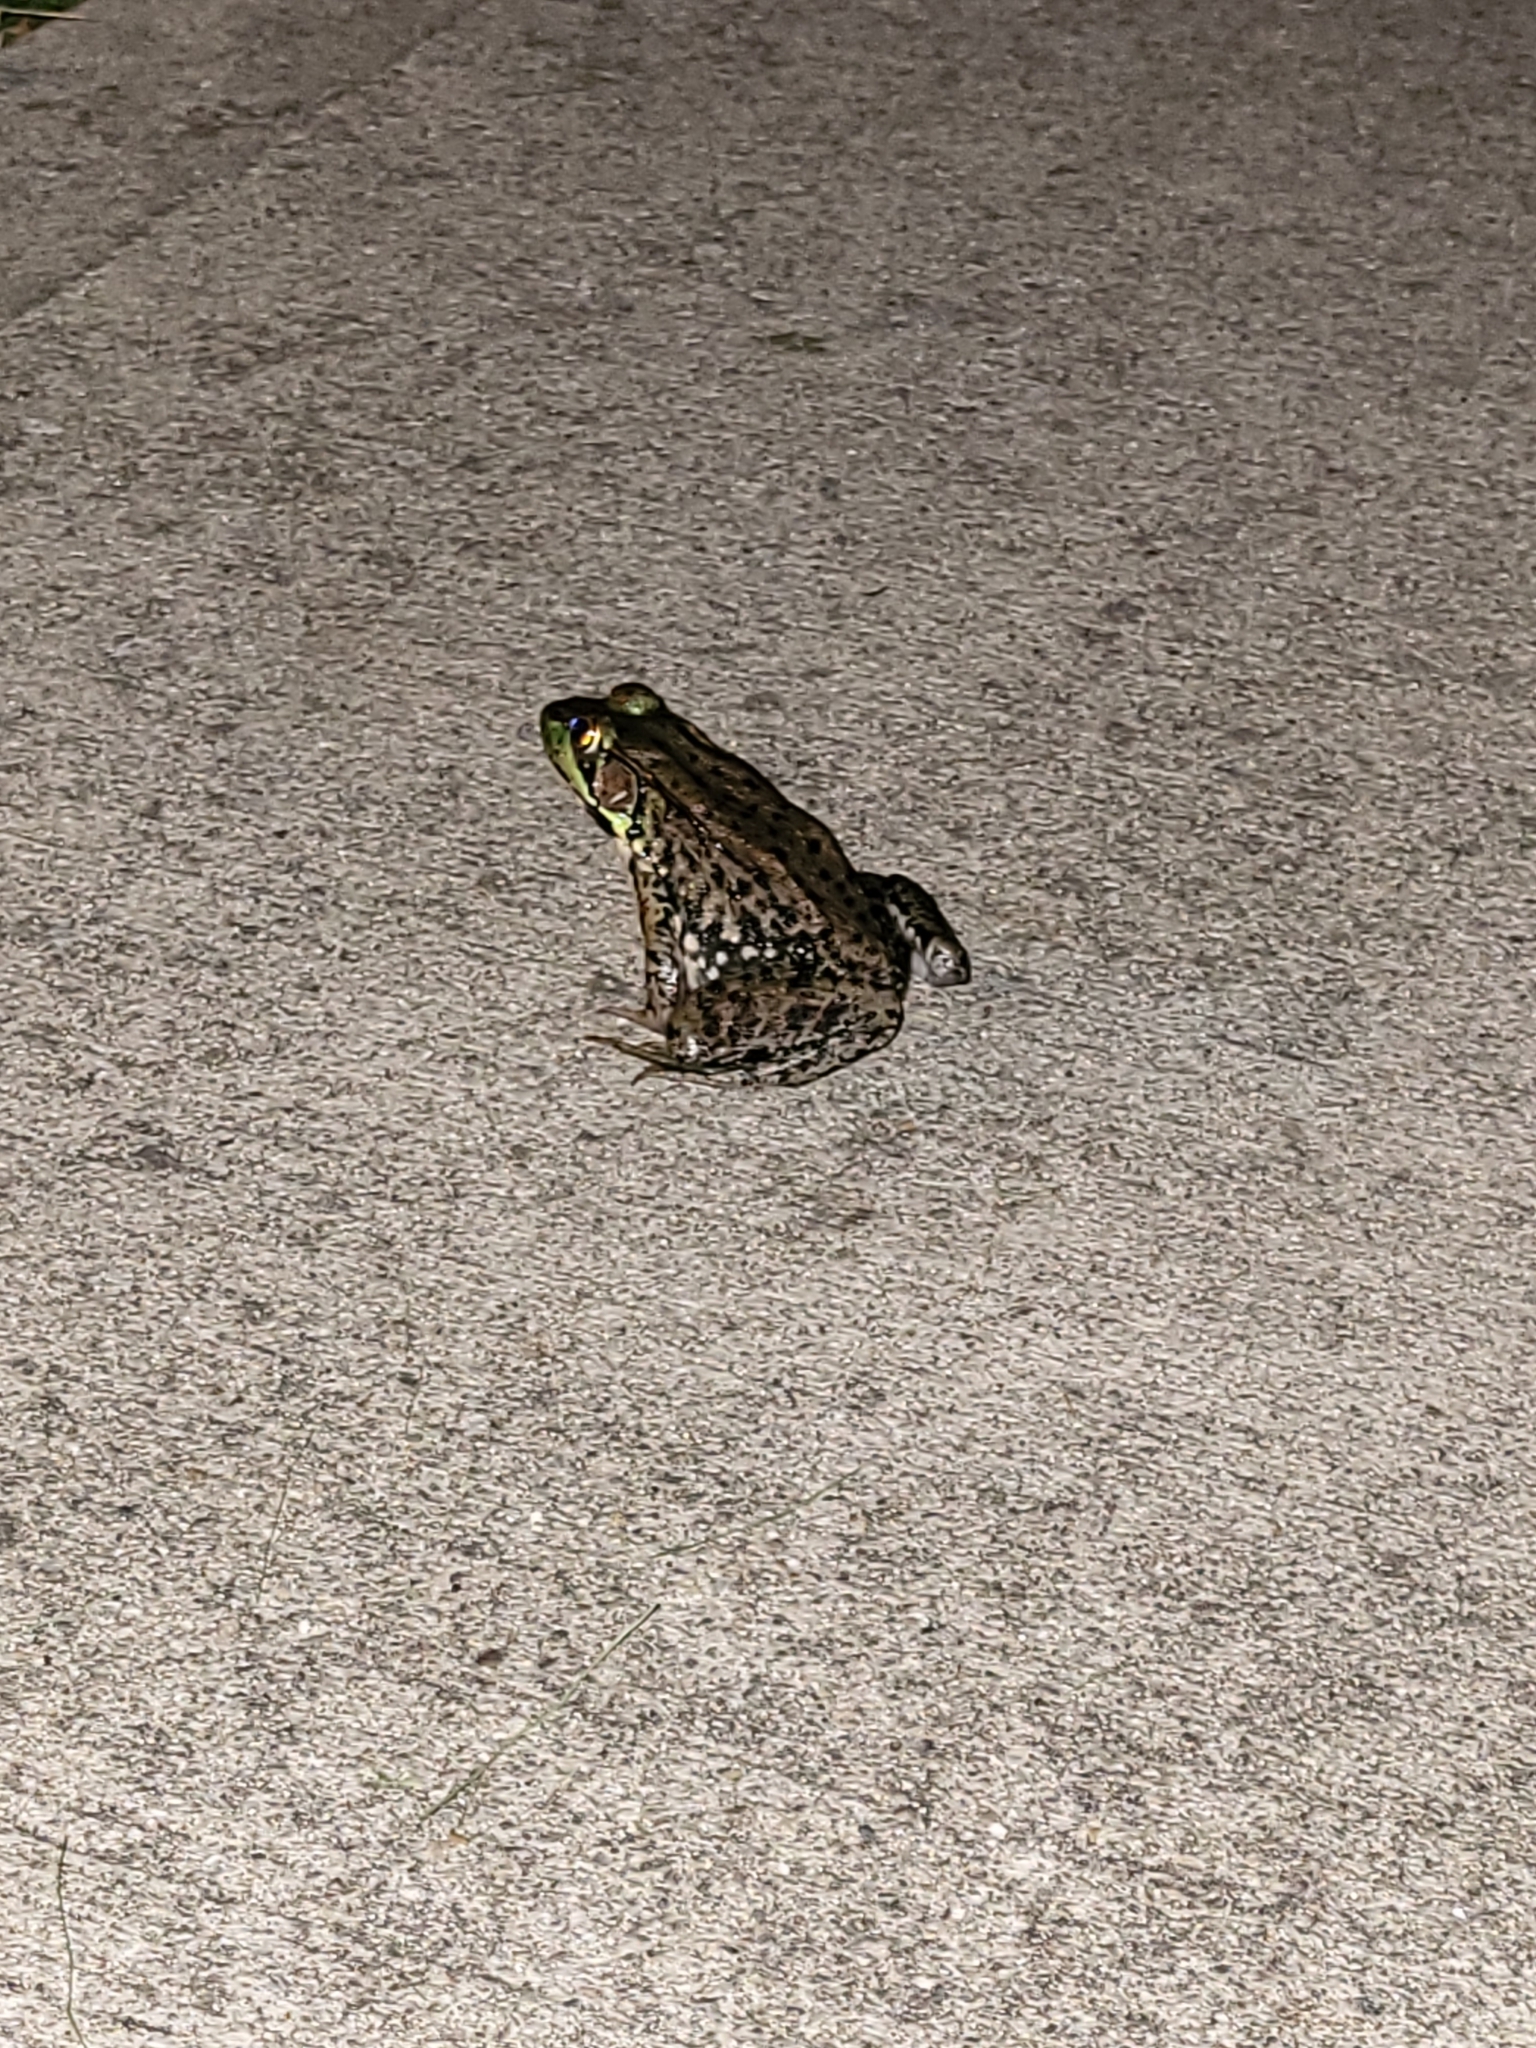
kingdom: Animalia
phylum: Chordata
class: Amphibia
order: Anura
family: Ranidae
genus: Lithobates
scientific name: Lithobates clamitans
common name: Green frog
